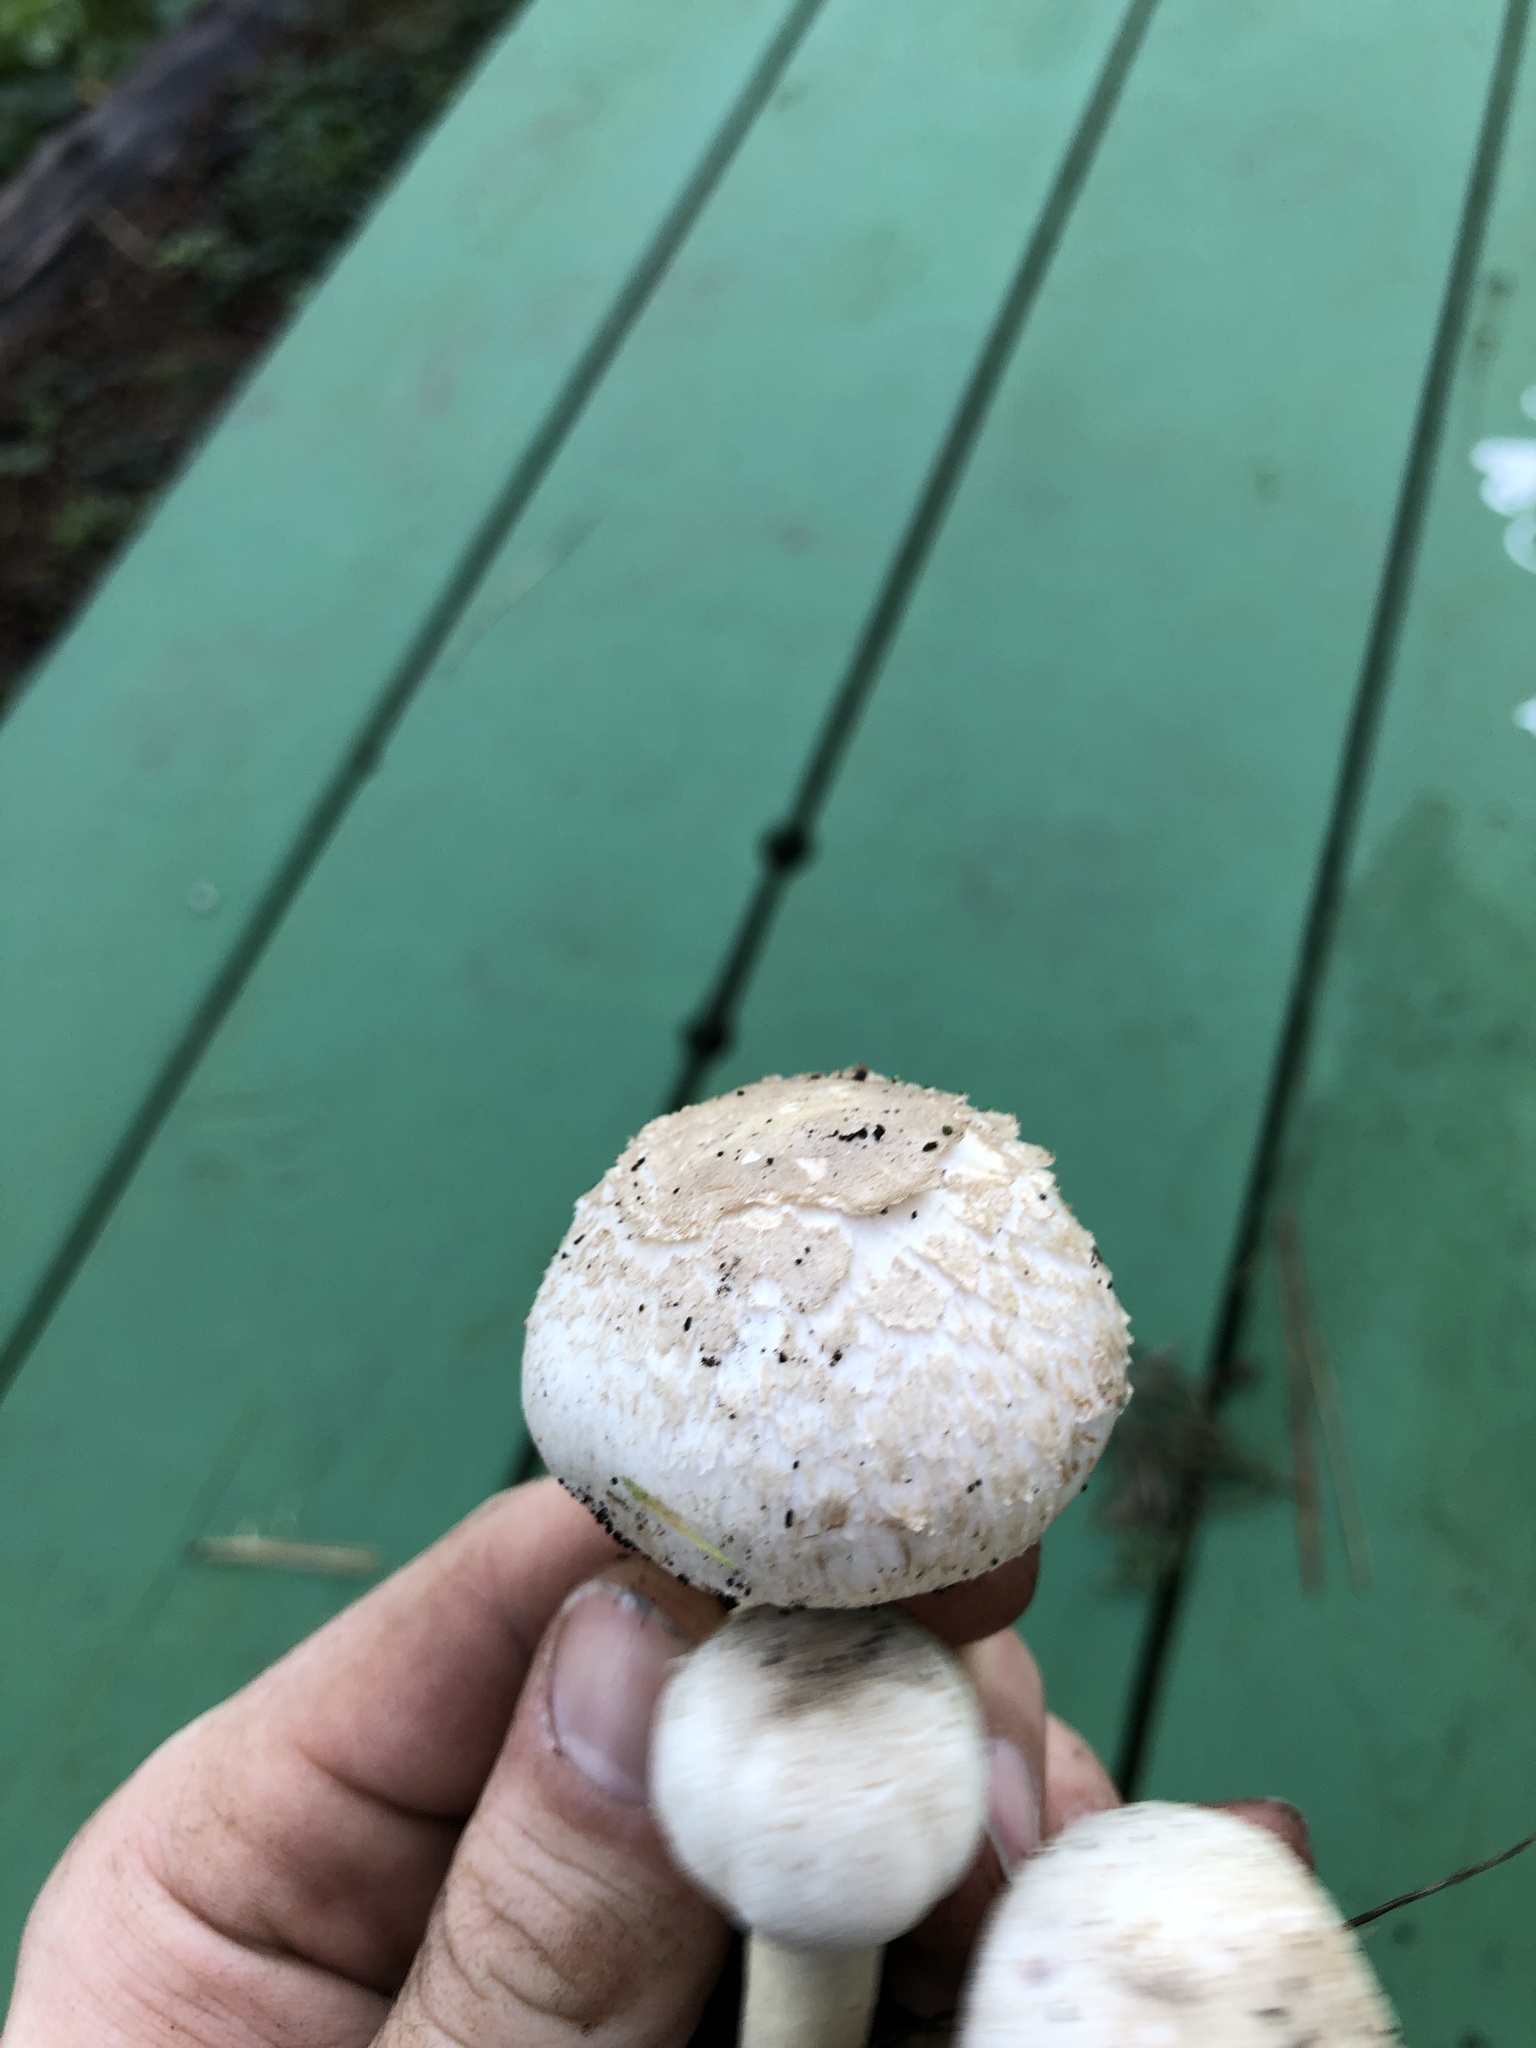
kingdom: Fungi
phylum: Basidiomycota
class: Agaricomycetes
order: Agaricales
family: Agaricaceae
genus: Agaricus
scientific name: Agaricus californicus
